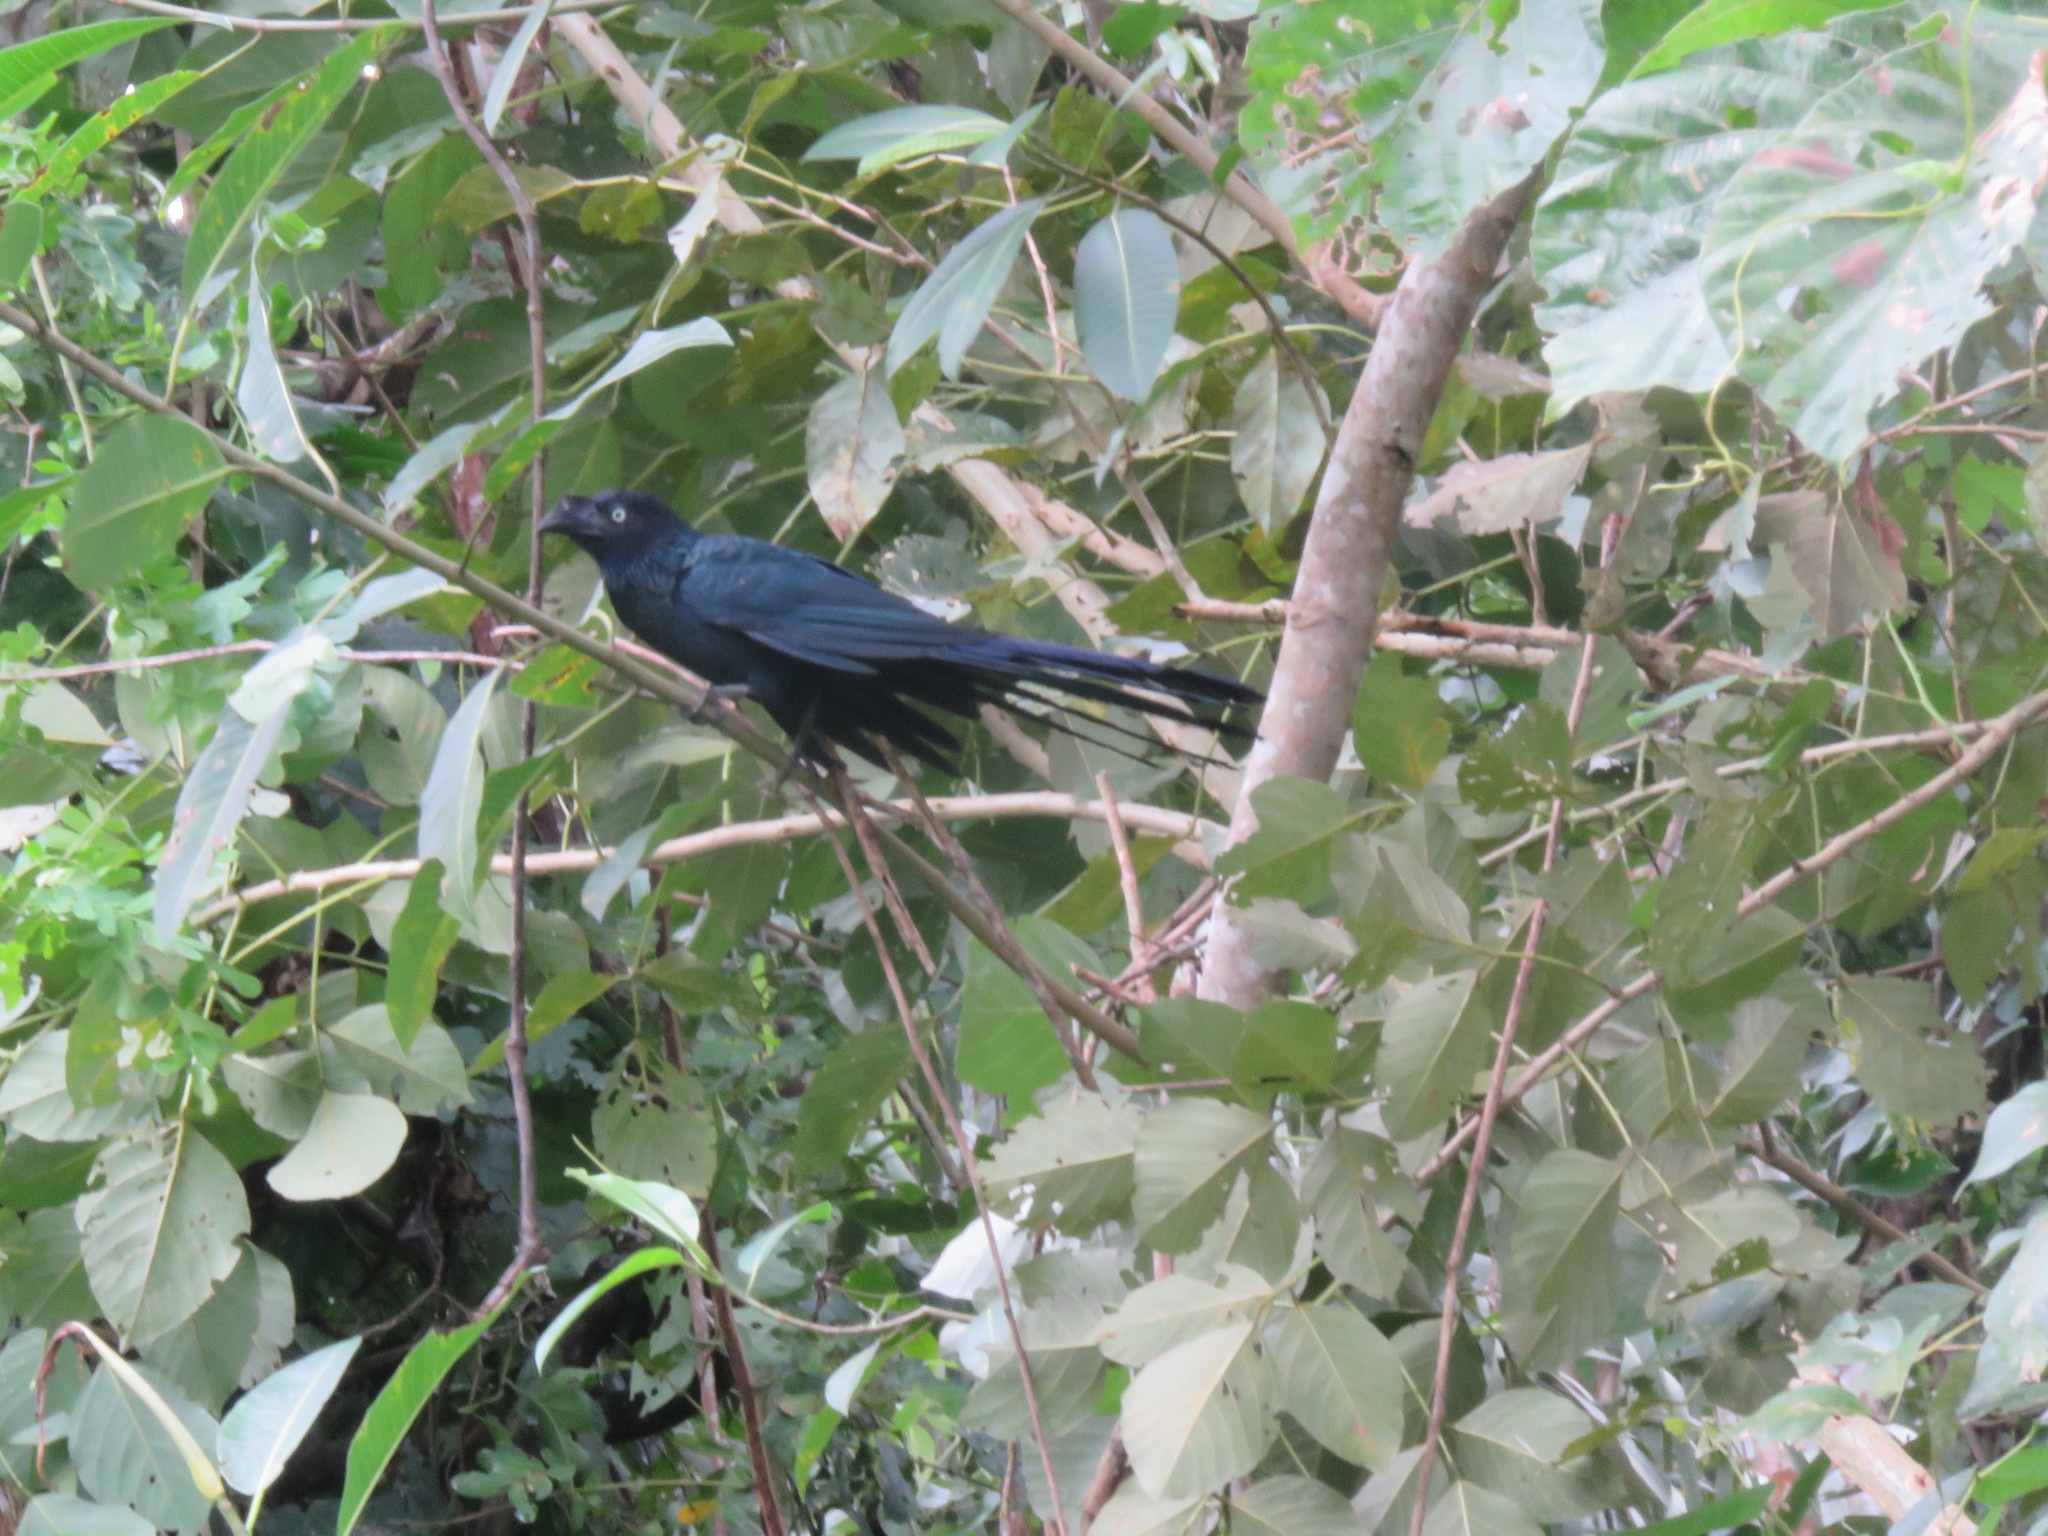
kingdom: Animalia
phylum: Chordata
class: Aves
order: Cuculiformes
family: Cuculidae
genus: Crotophaga
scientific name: Crotophaga major
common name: Greater ani
